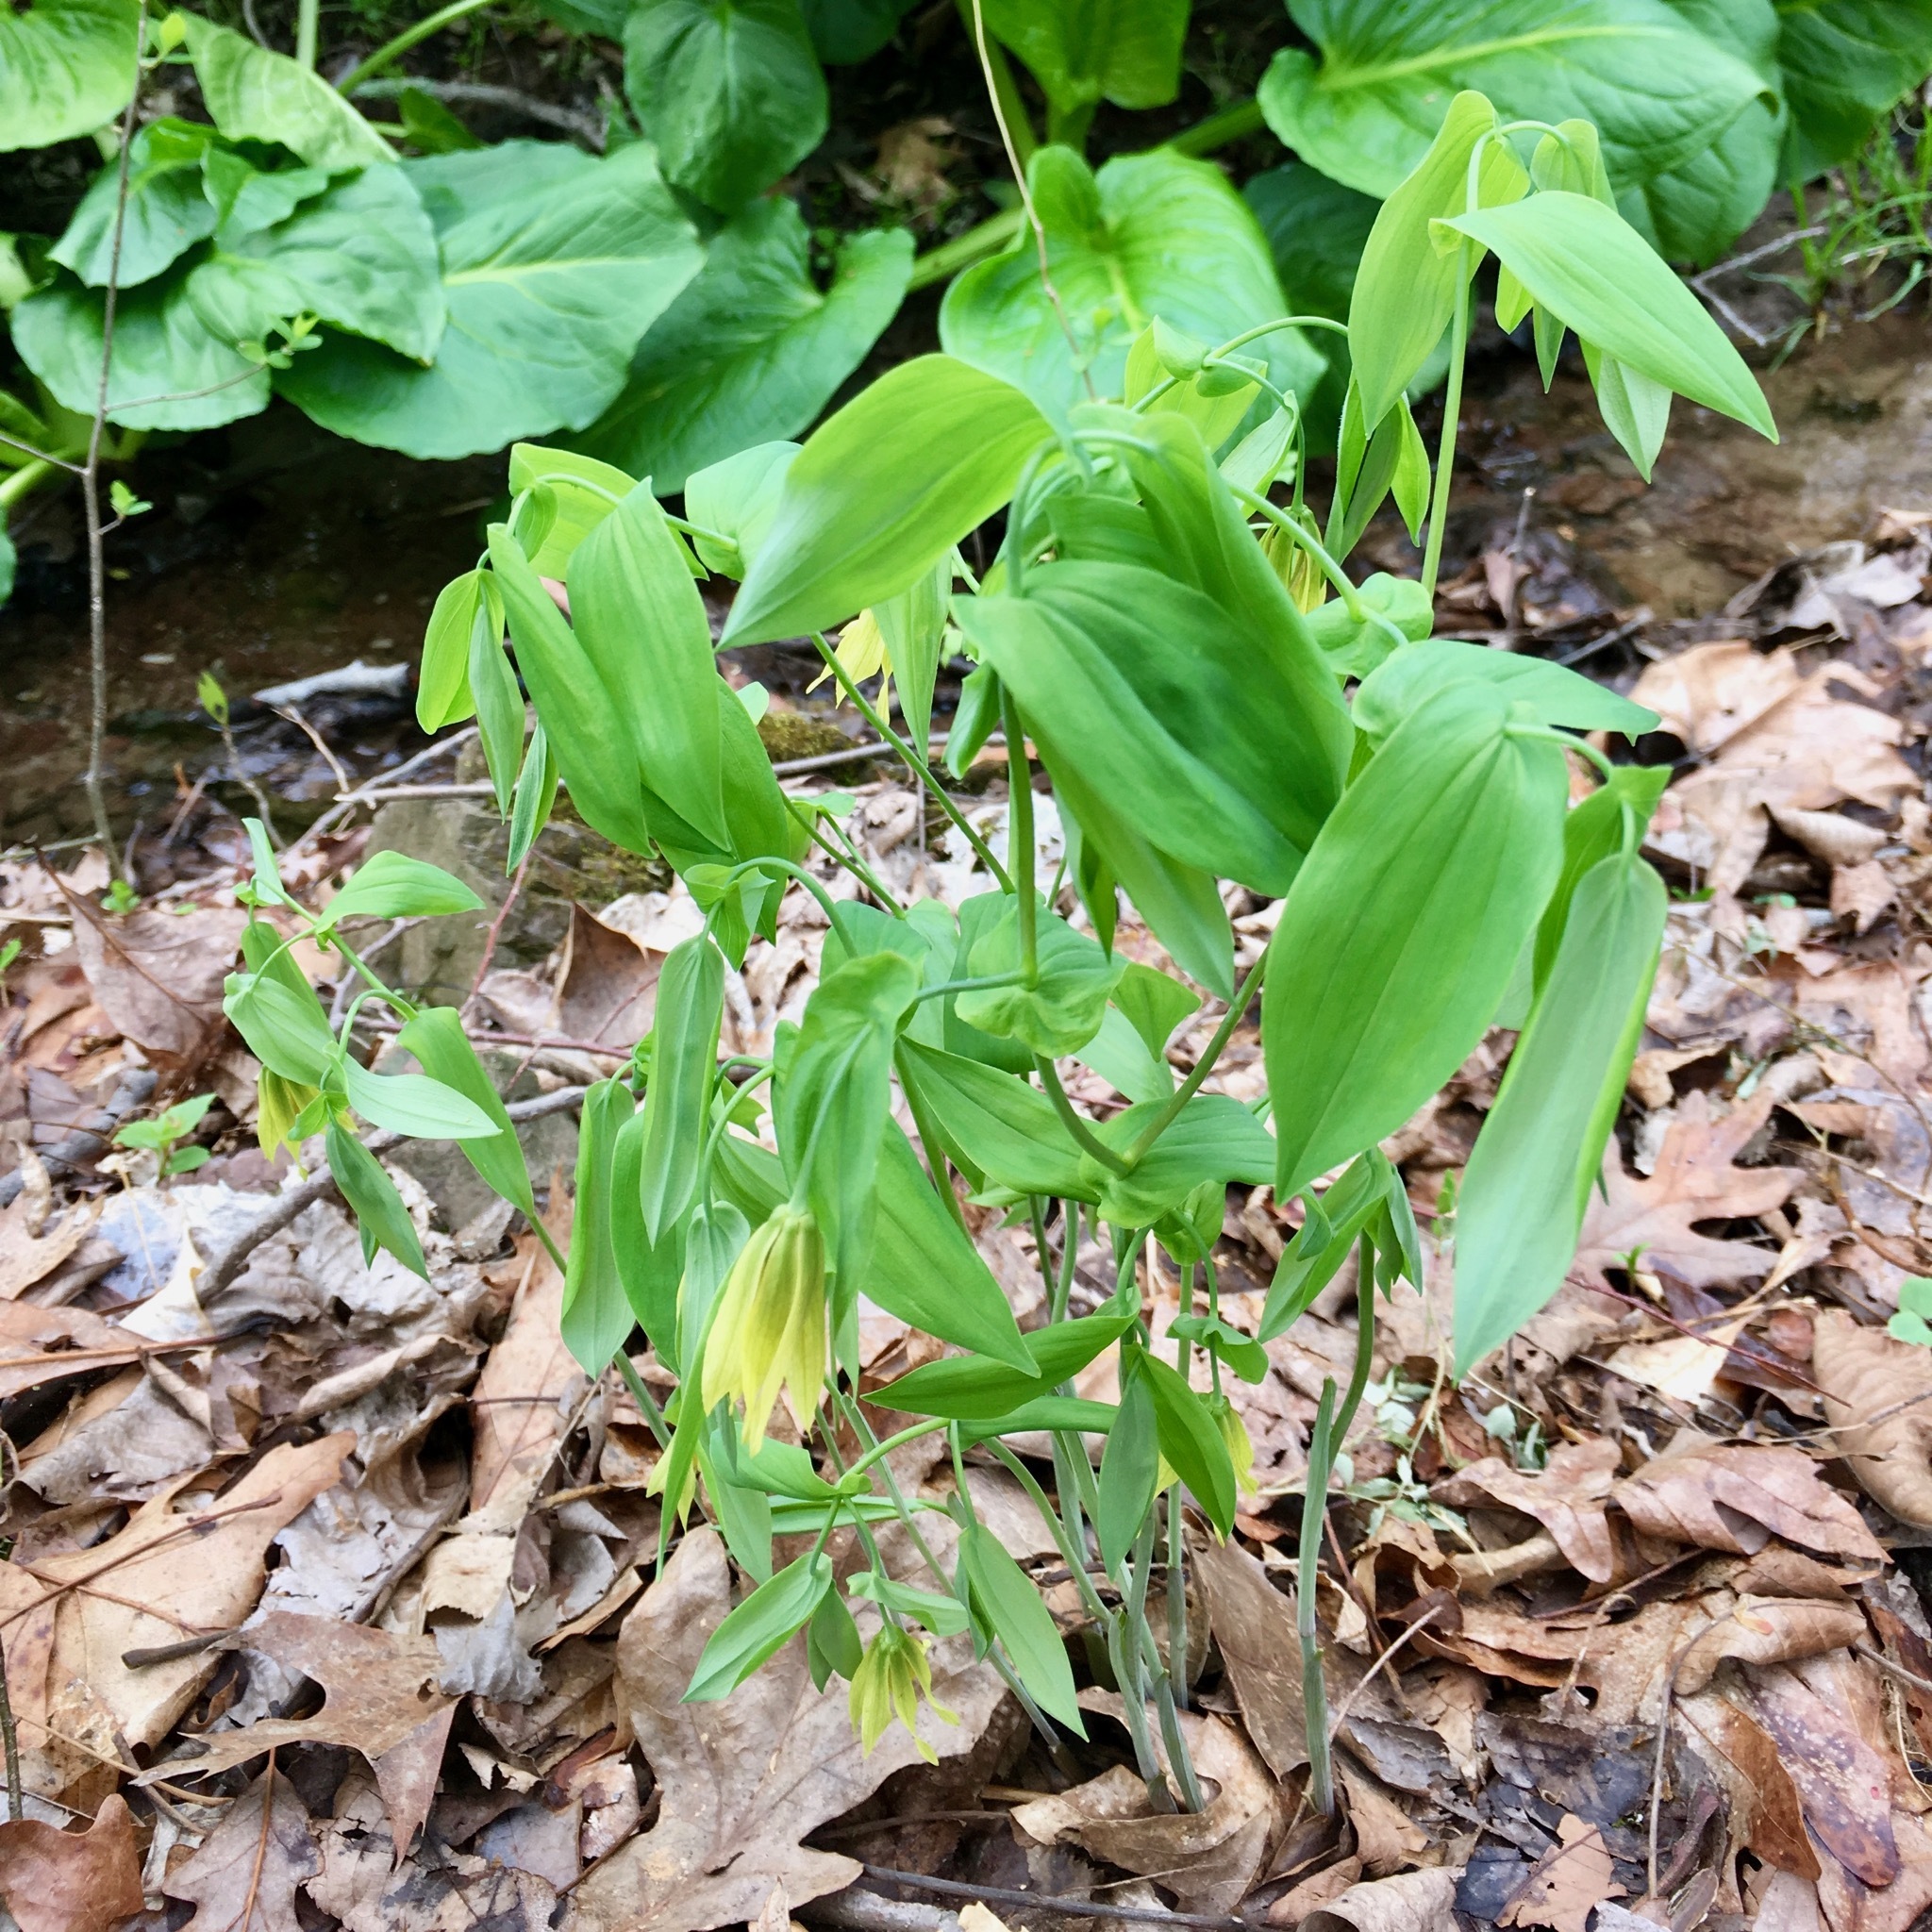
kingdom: Plantae
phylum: Tracheophyta
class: Liliopsida
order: Liliales
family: Colchicaceae
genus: Uvularia
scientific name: Uvularia grandiflora
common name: Bellwort
